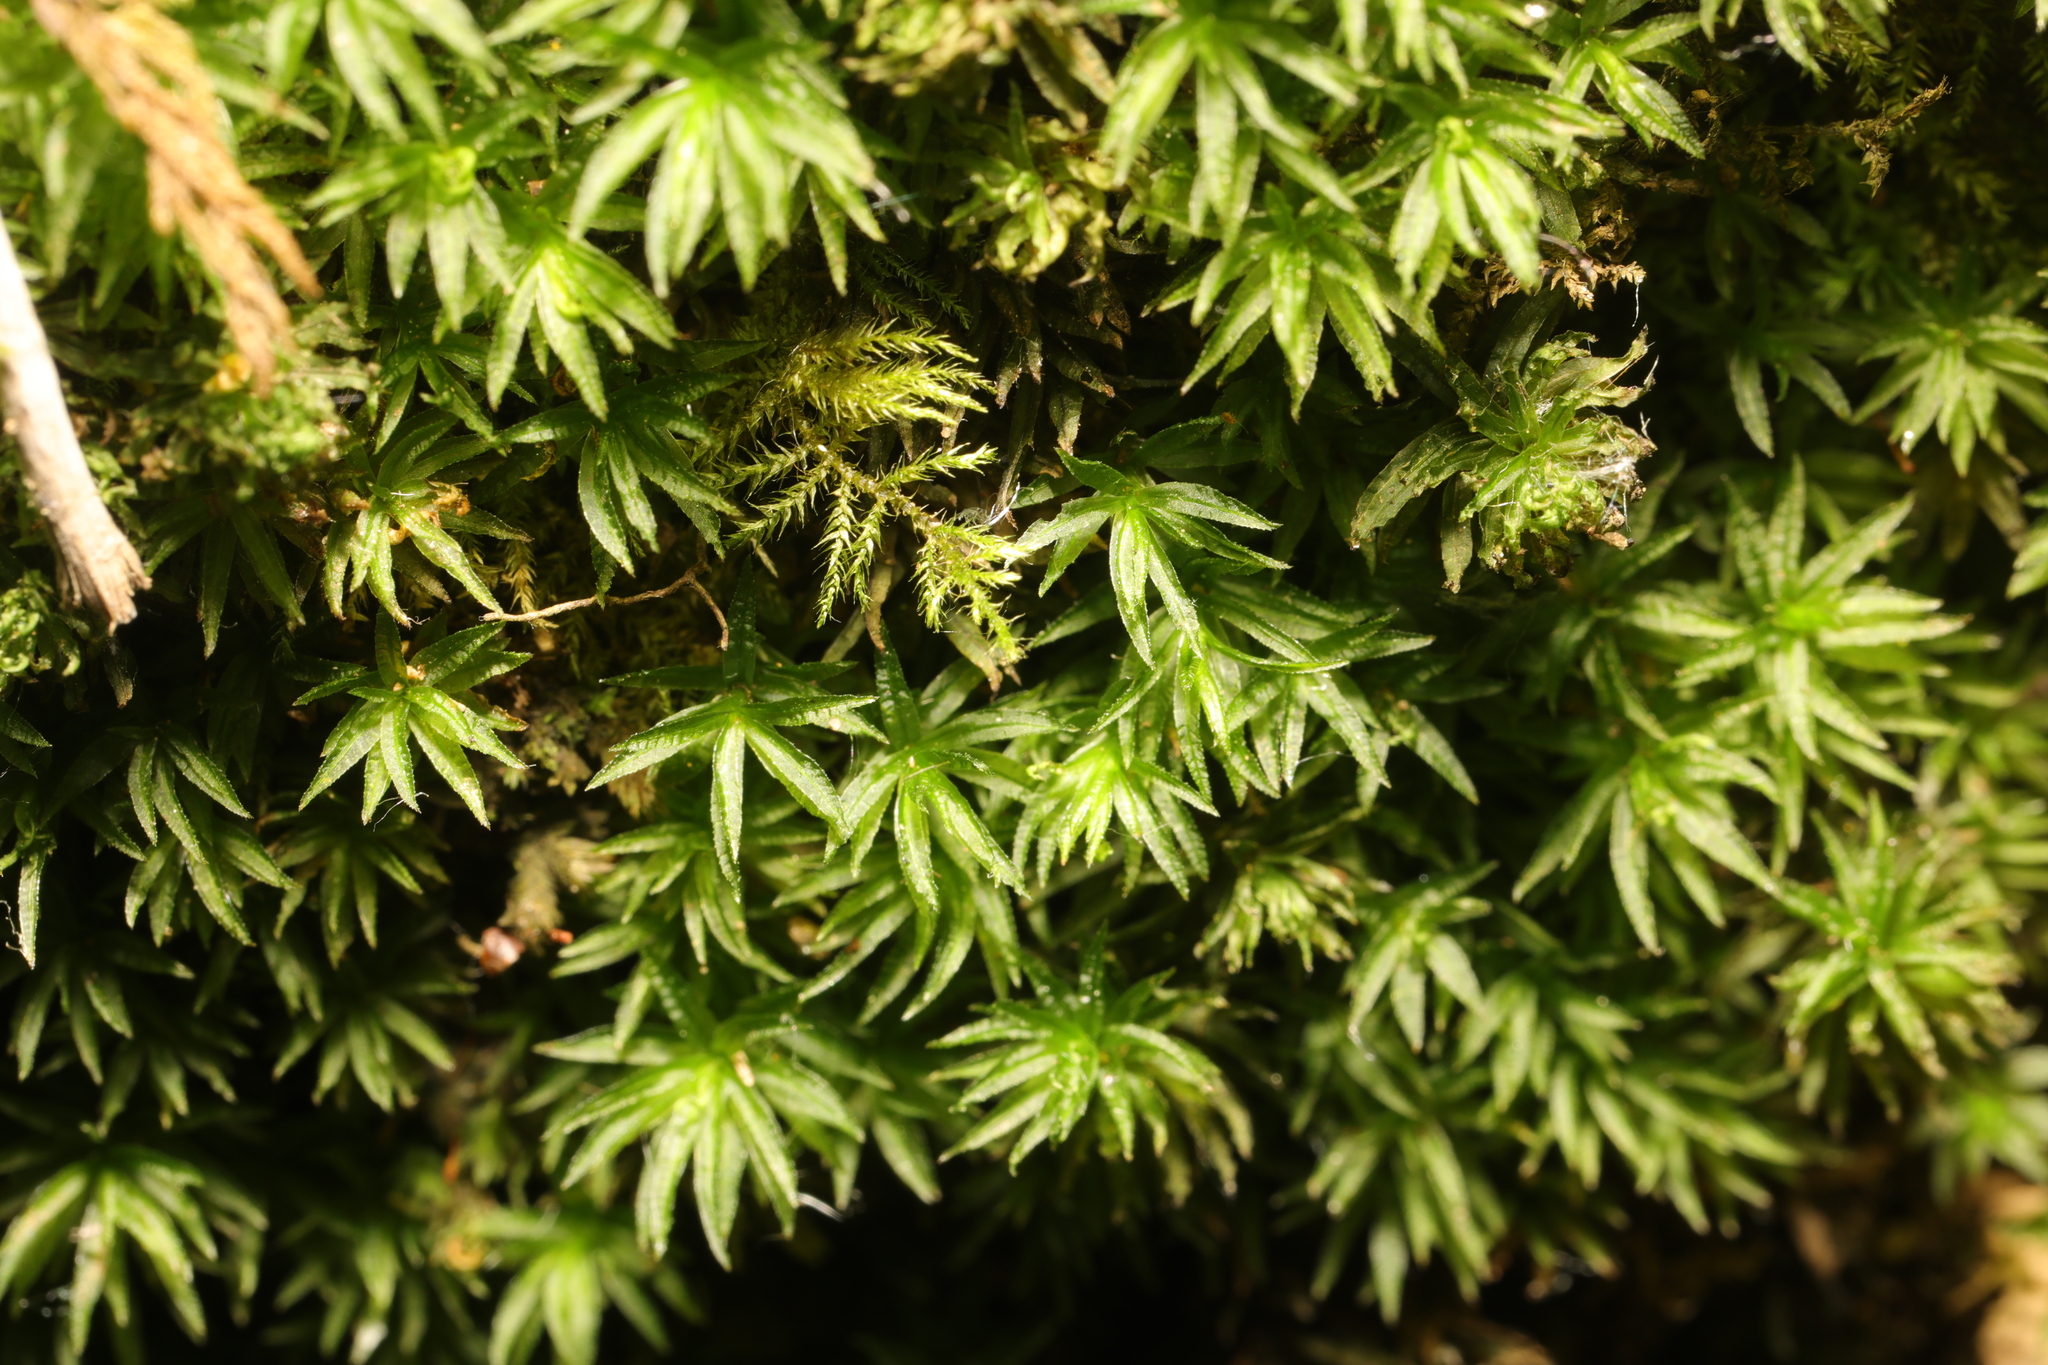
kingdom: Plantae
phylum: Bryophyta
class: Polytrichopsida
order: Polytrichales
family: Polytrichaceae
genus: Atrichum
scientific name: Atrichum undulatum
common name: Common smoothcap
